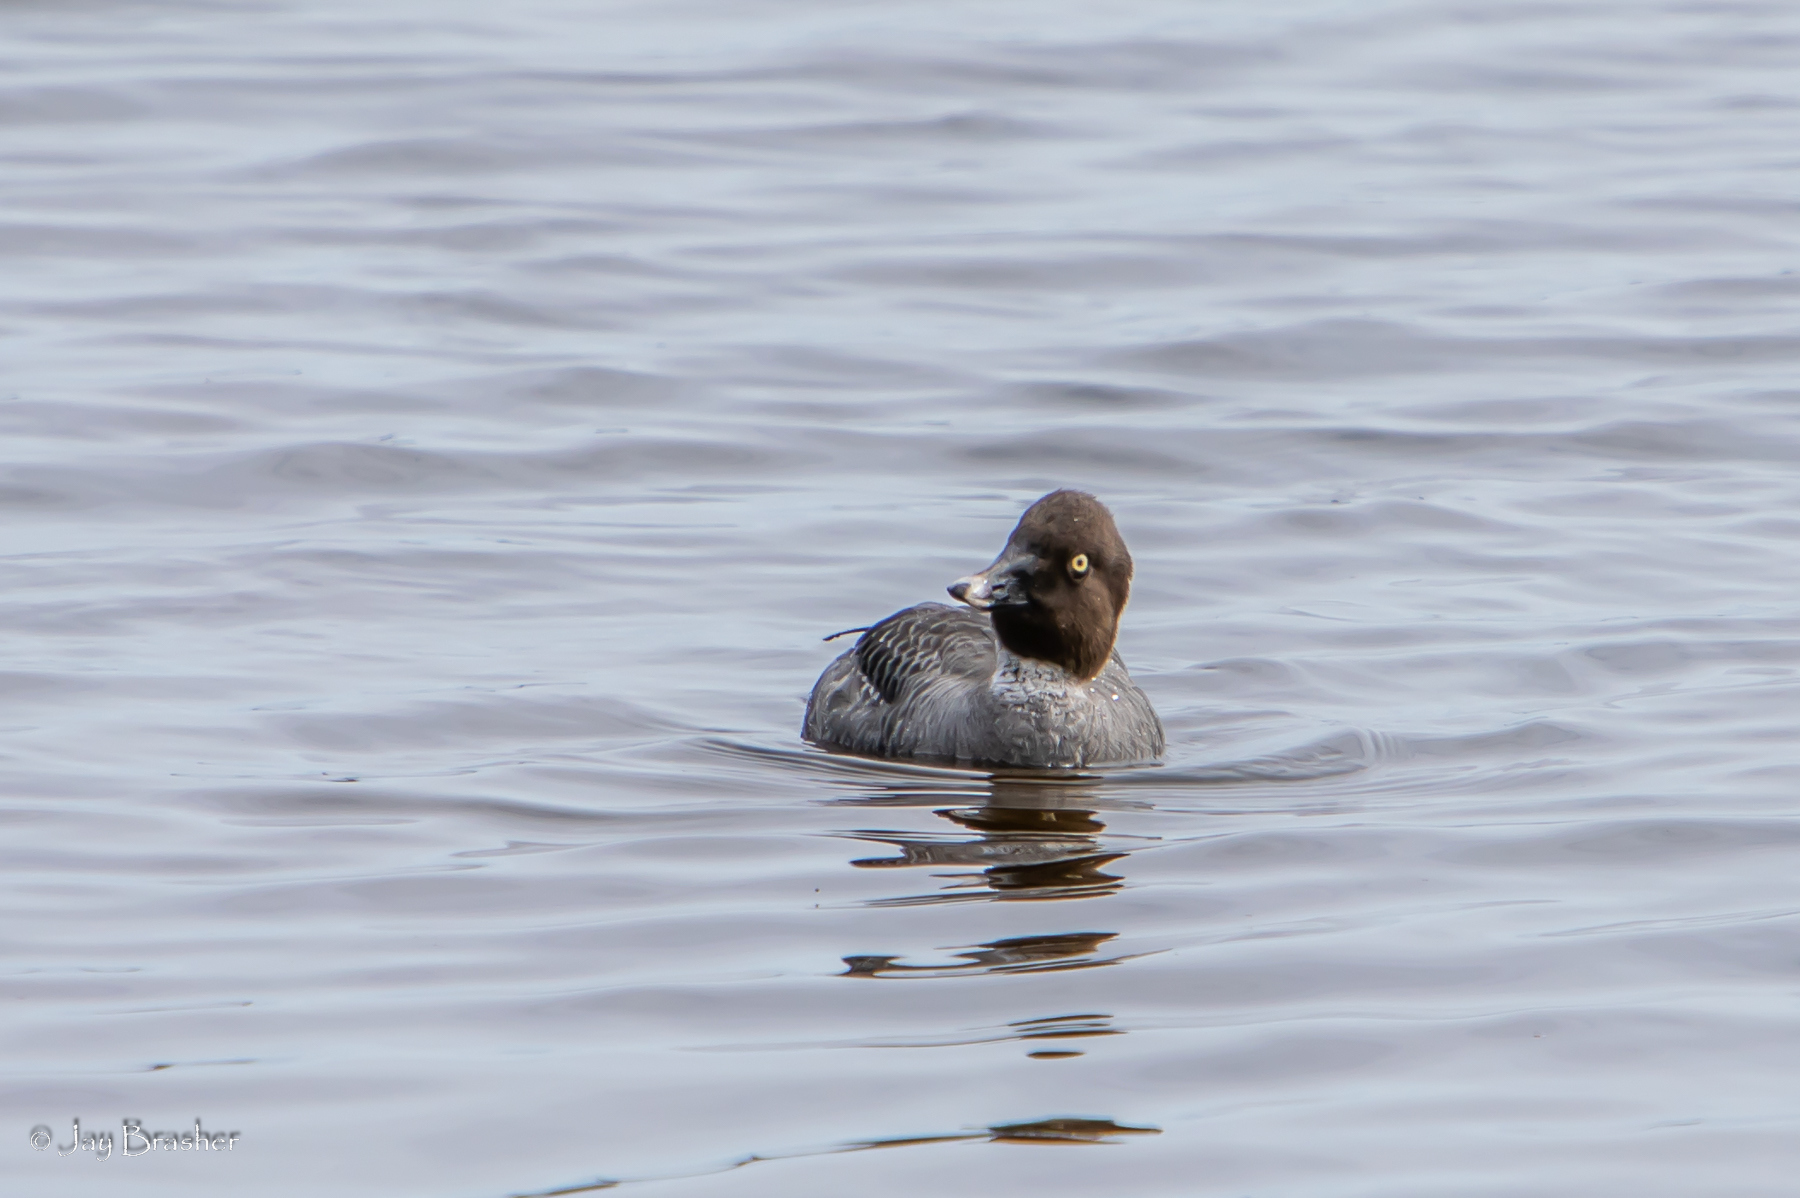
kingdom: Animalia
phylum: Chordata
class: Aves
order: Anseriformes
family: Anatidae
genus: Bucephala
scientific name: Bucephala clangula
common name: Common goldeneye
